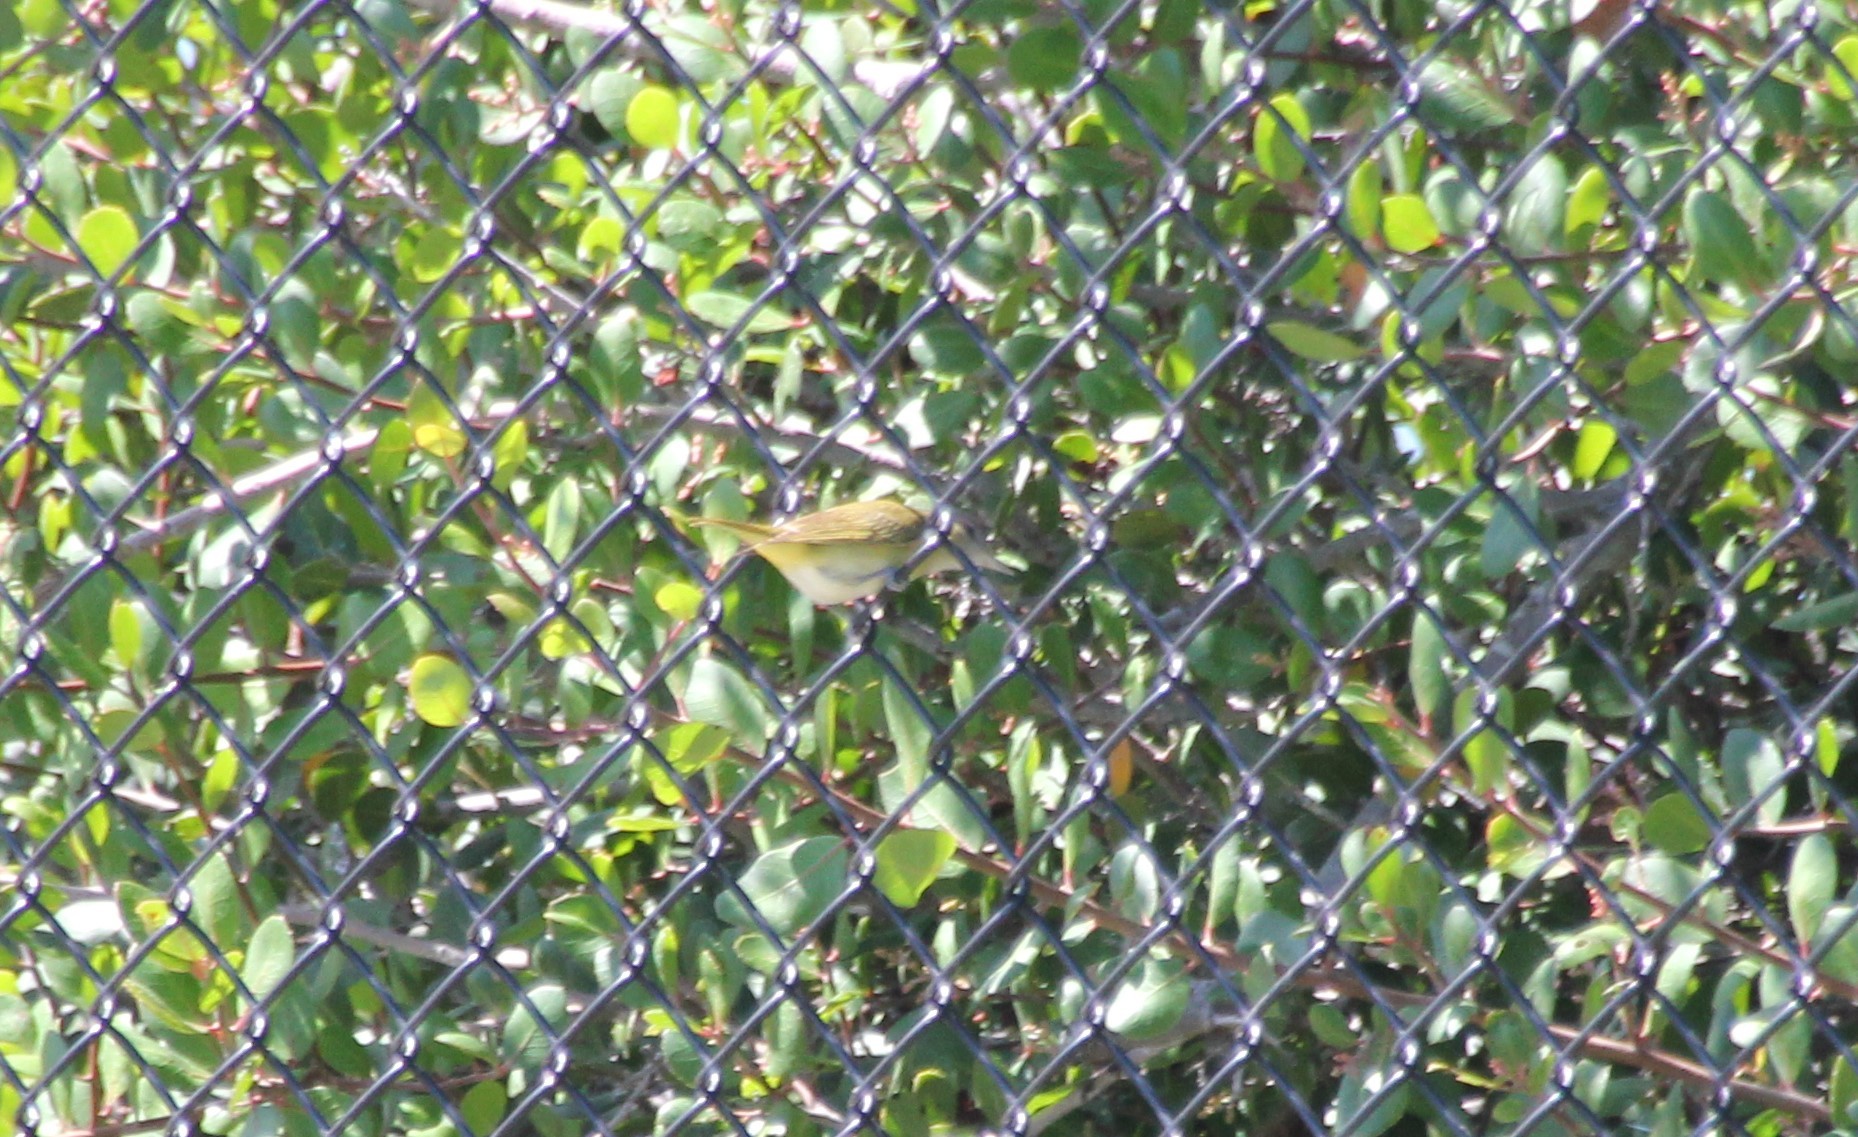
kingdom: Animalia
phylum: Chordata
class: Aves
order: Passeriformes
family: Vireonidae
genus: Vireo
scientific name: Vireo flavoviridis
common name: Yellow-green vireo
